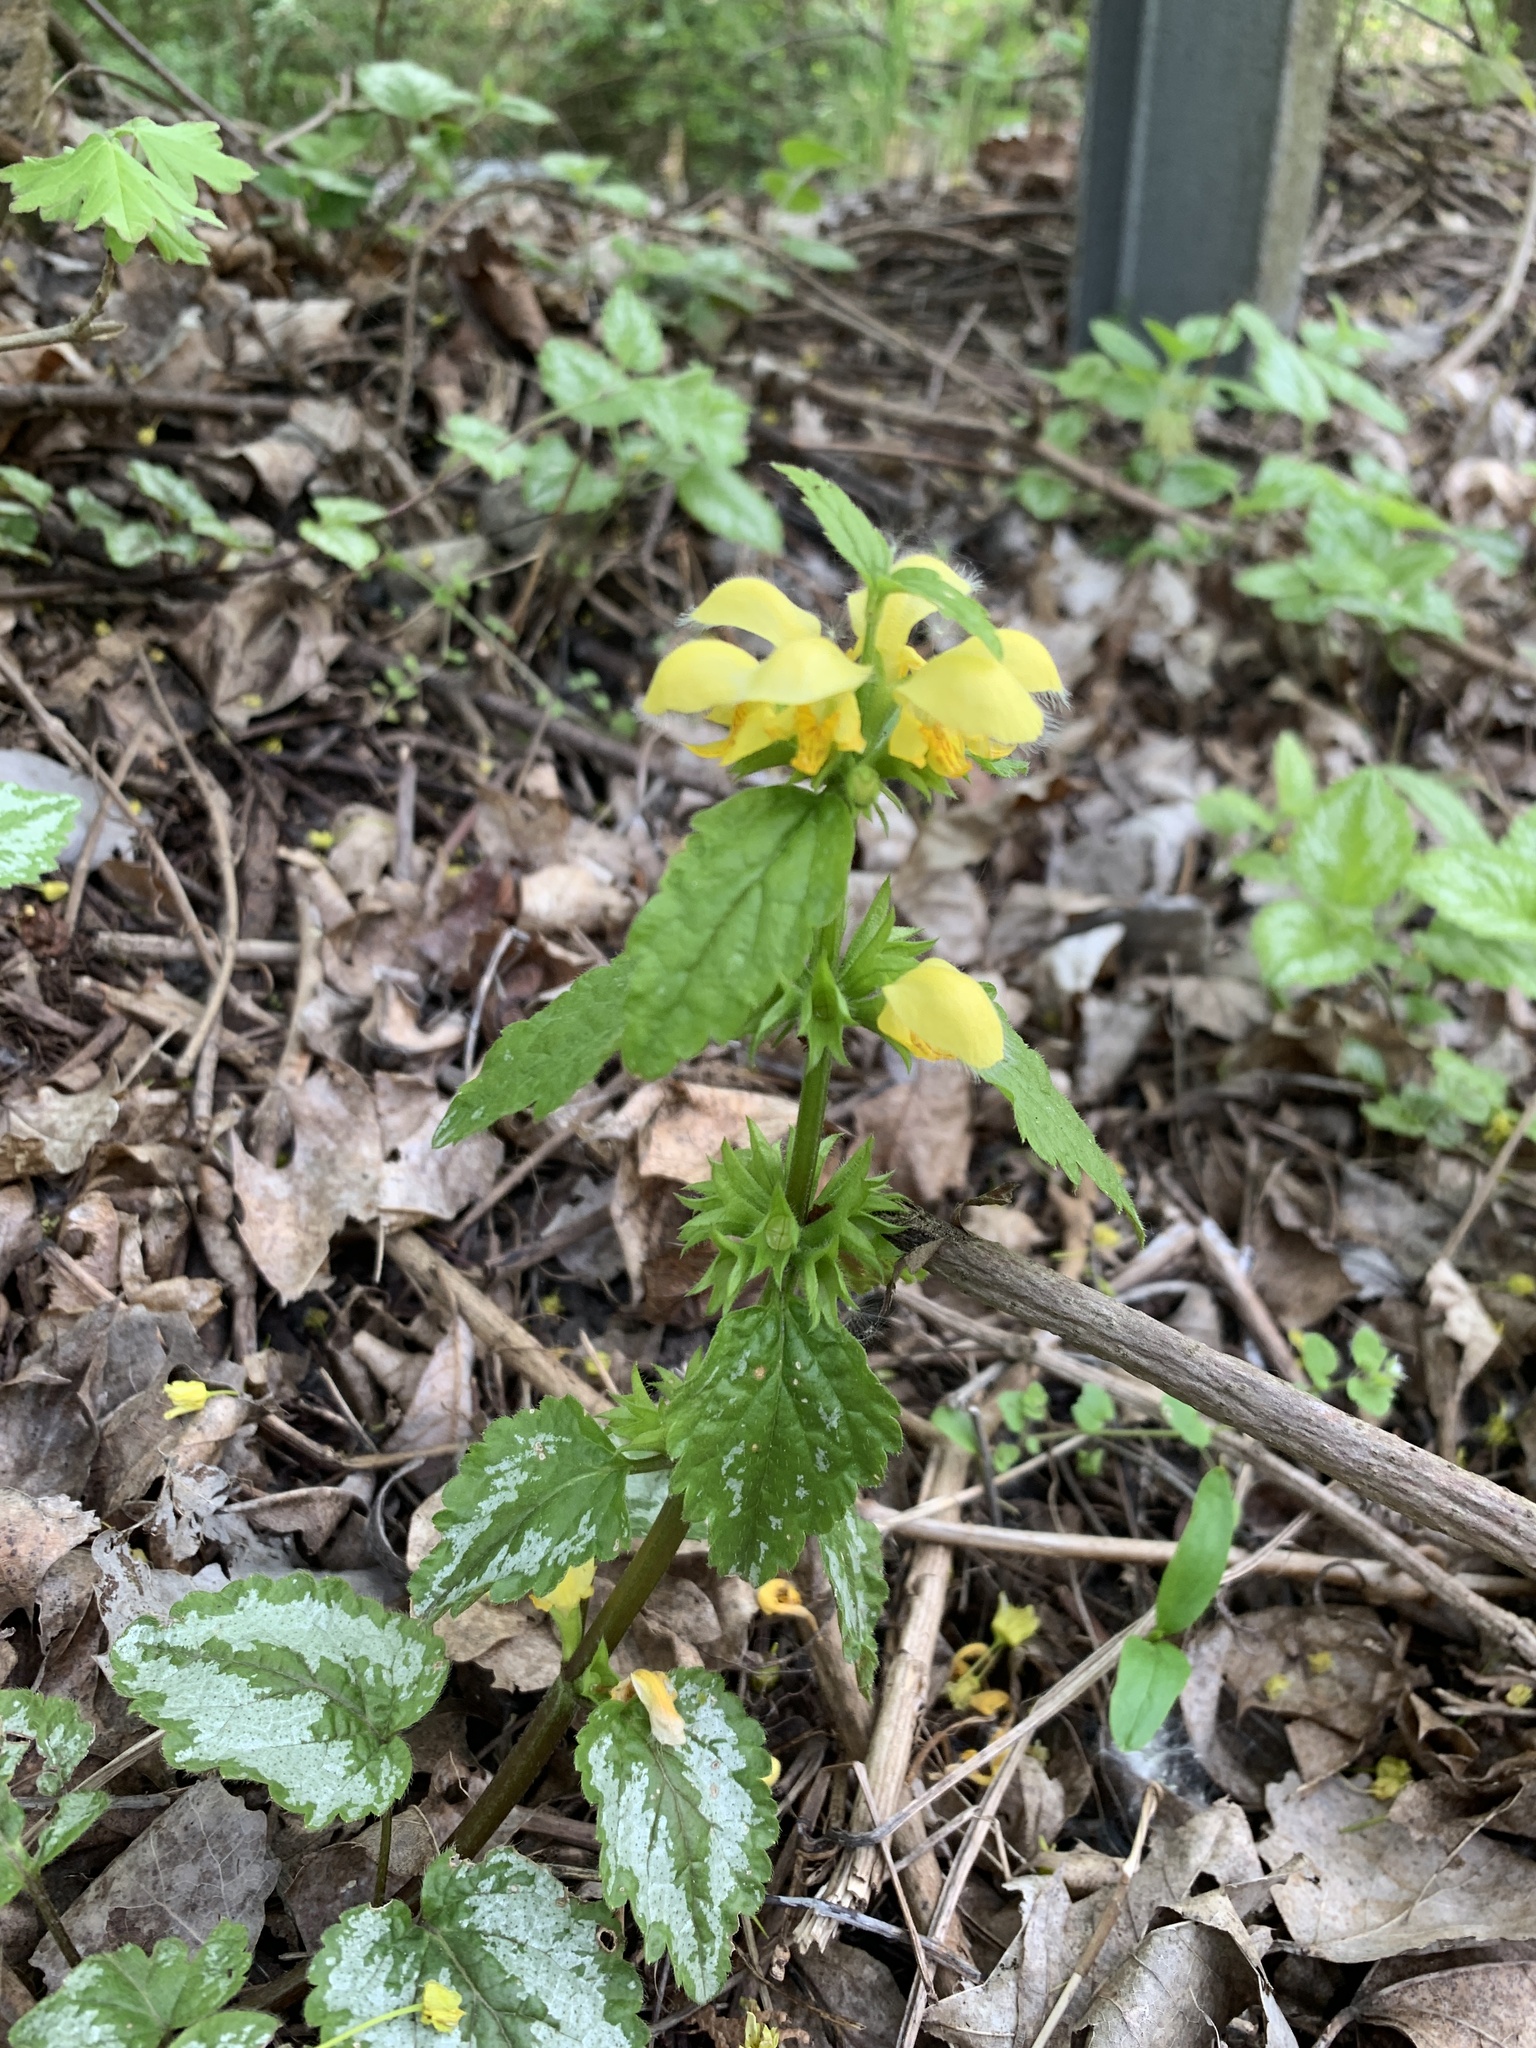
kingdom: Plantae
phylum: Tracheophyta
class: Magnoliopsida
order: Lamiales
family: Lamiaceae
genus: Lamium
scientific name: Lamium galeobdolon
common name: Yellow archangel
